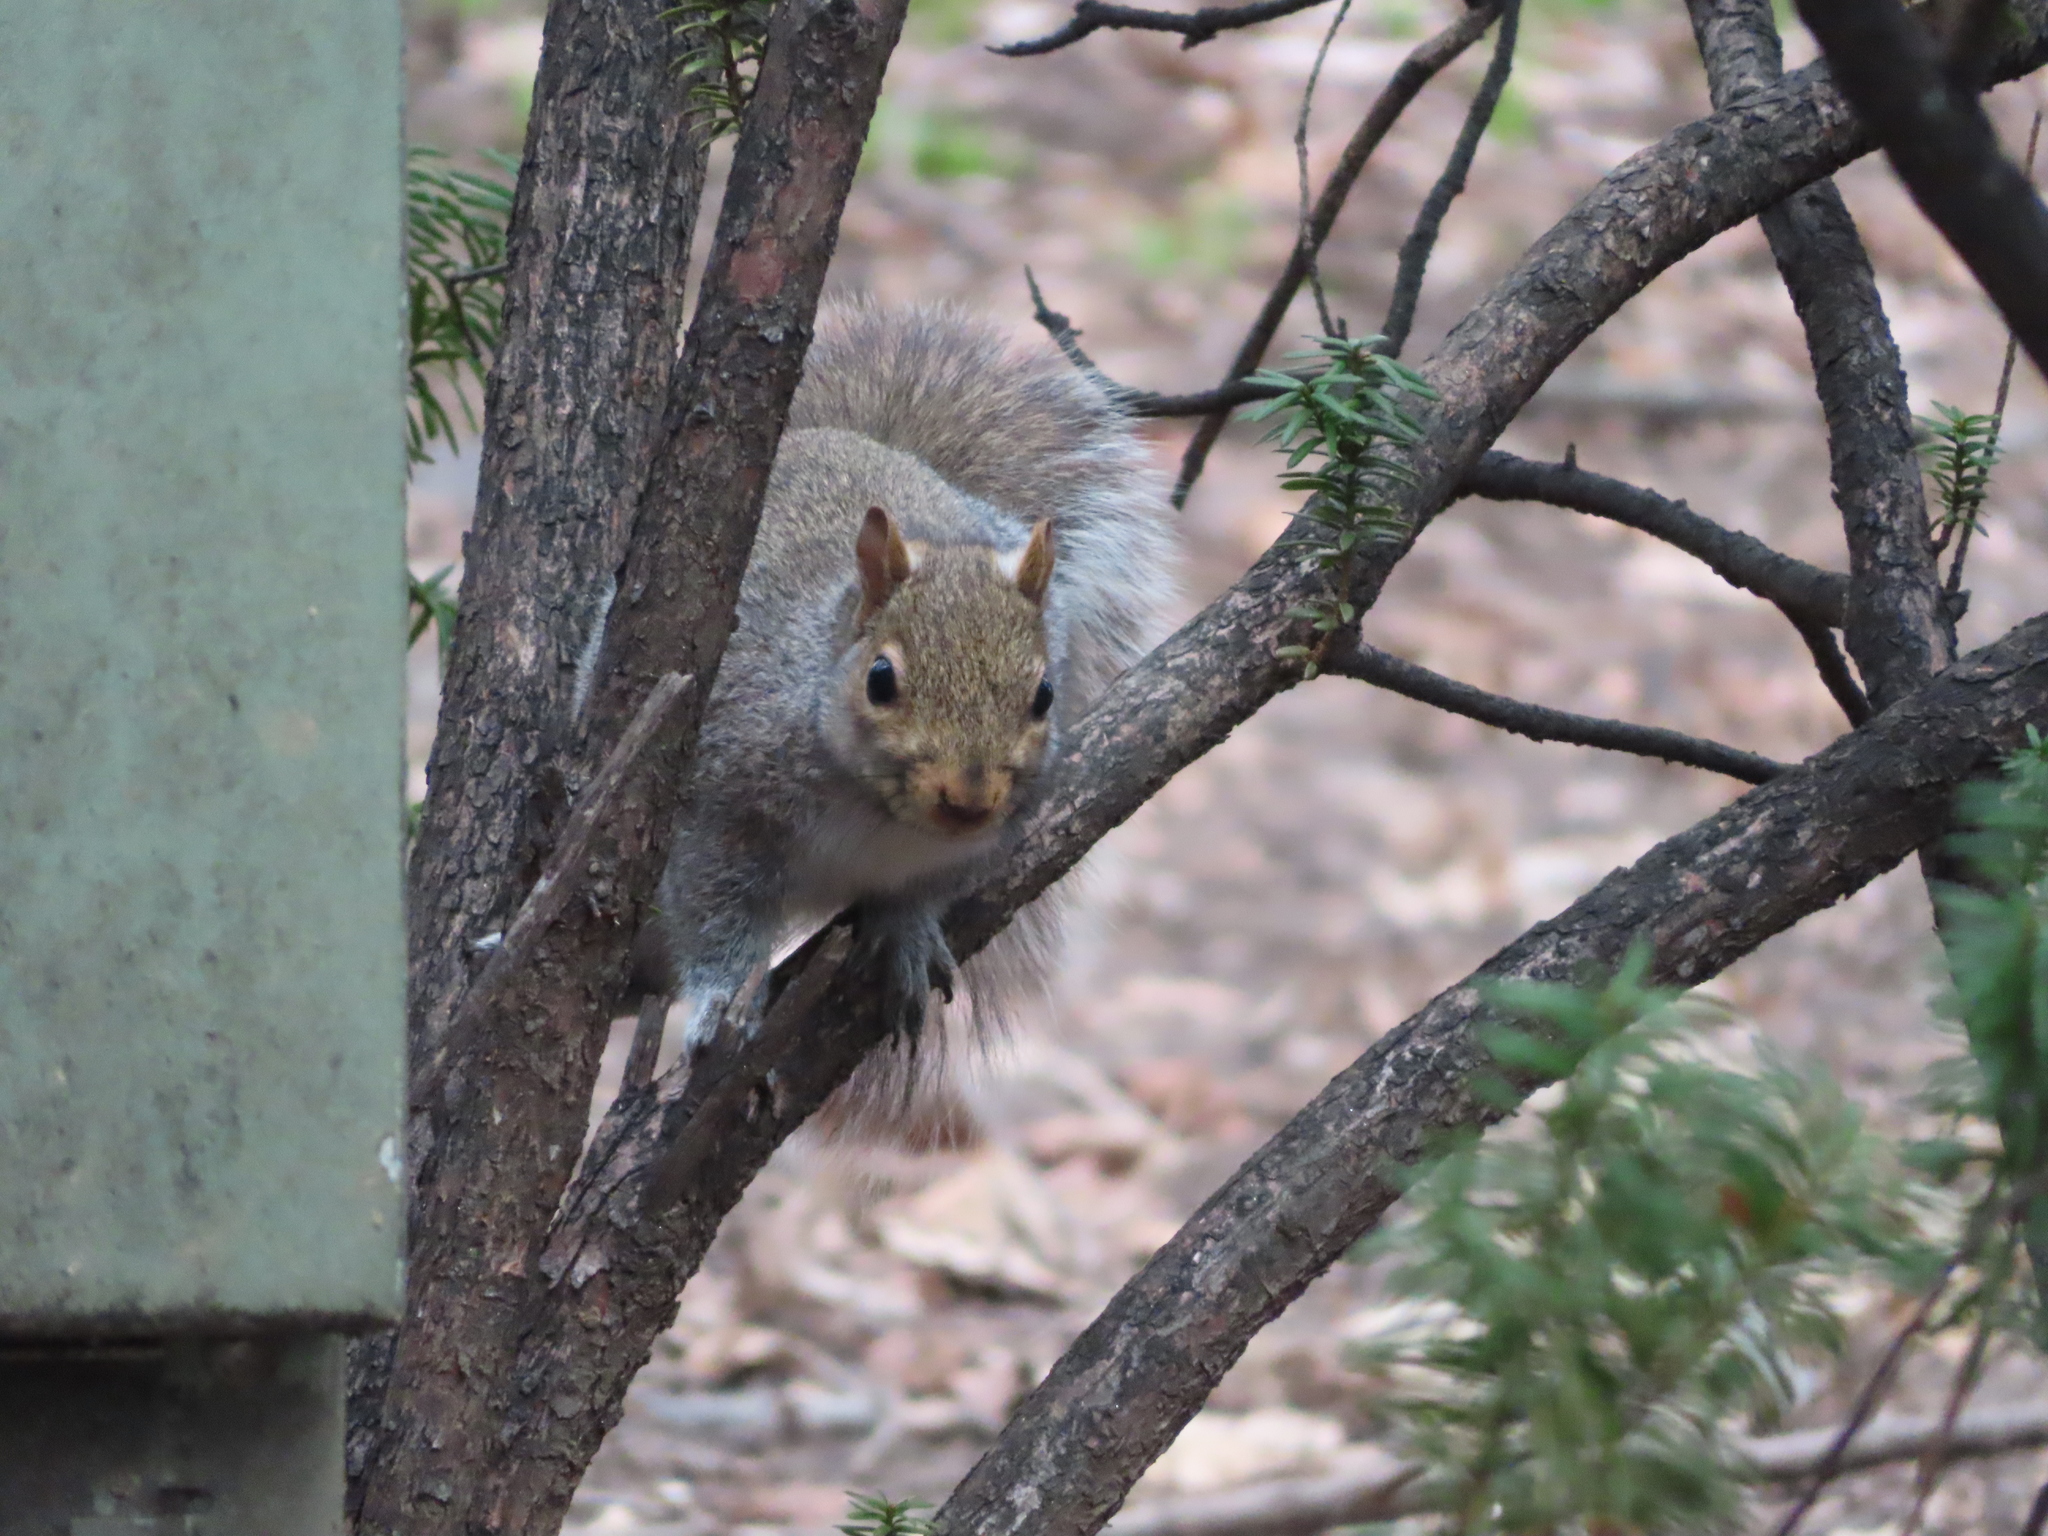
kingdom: Animalia
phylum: Chordata
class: Mammalia
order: Rodentia
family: Sciuridae
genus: Sciurus
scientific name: Sciurus carolinensis
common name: Eastern gray squirrel
